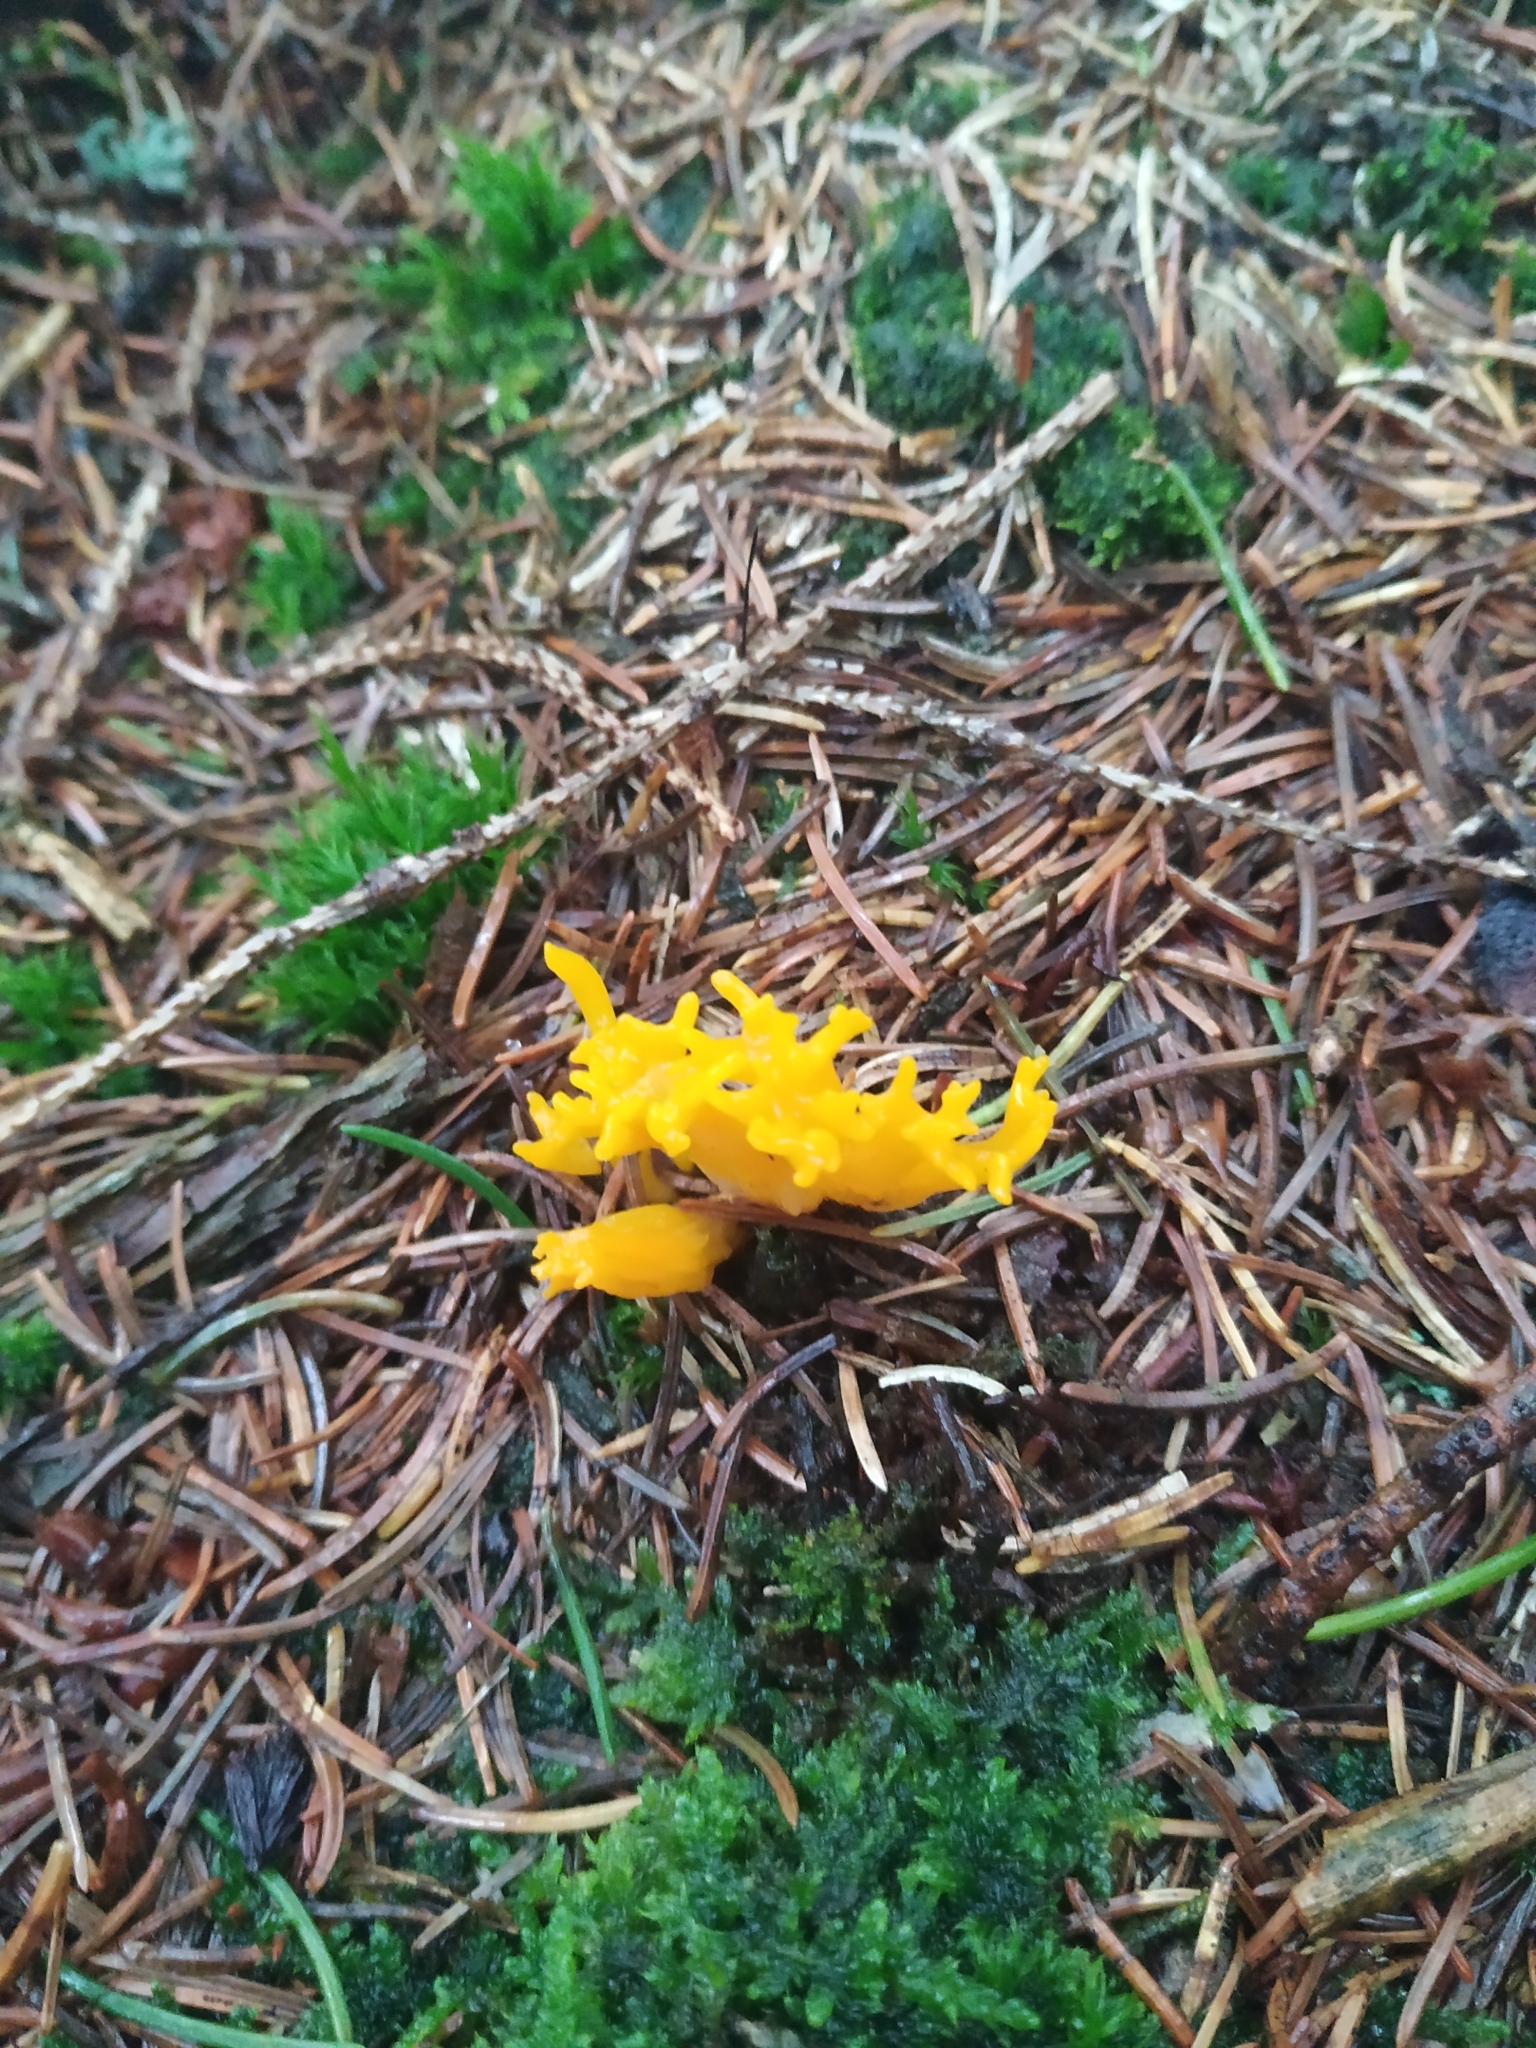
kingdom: Fungi
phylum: Basidiomycota
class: Dacrymycetes
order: Dacrymycetales
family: Dacrymycetaceae
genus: Calocera
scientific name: Calocera viscosa
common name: Yellow stagshorn
